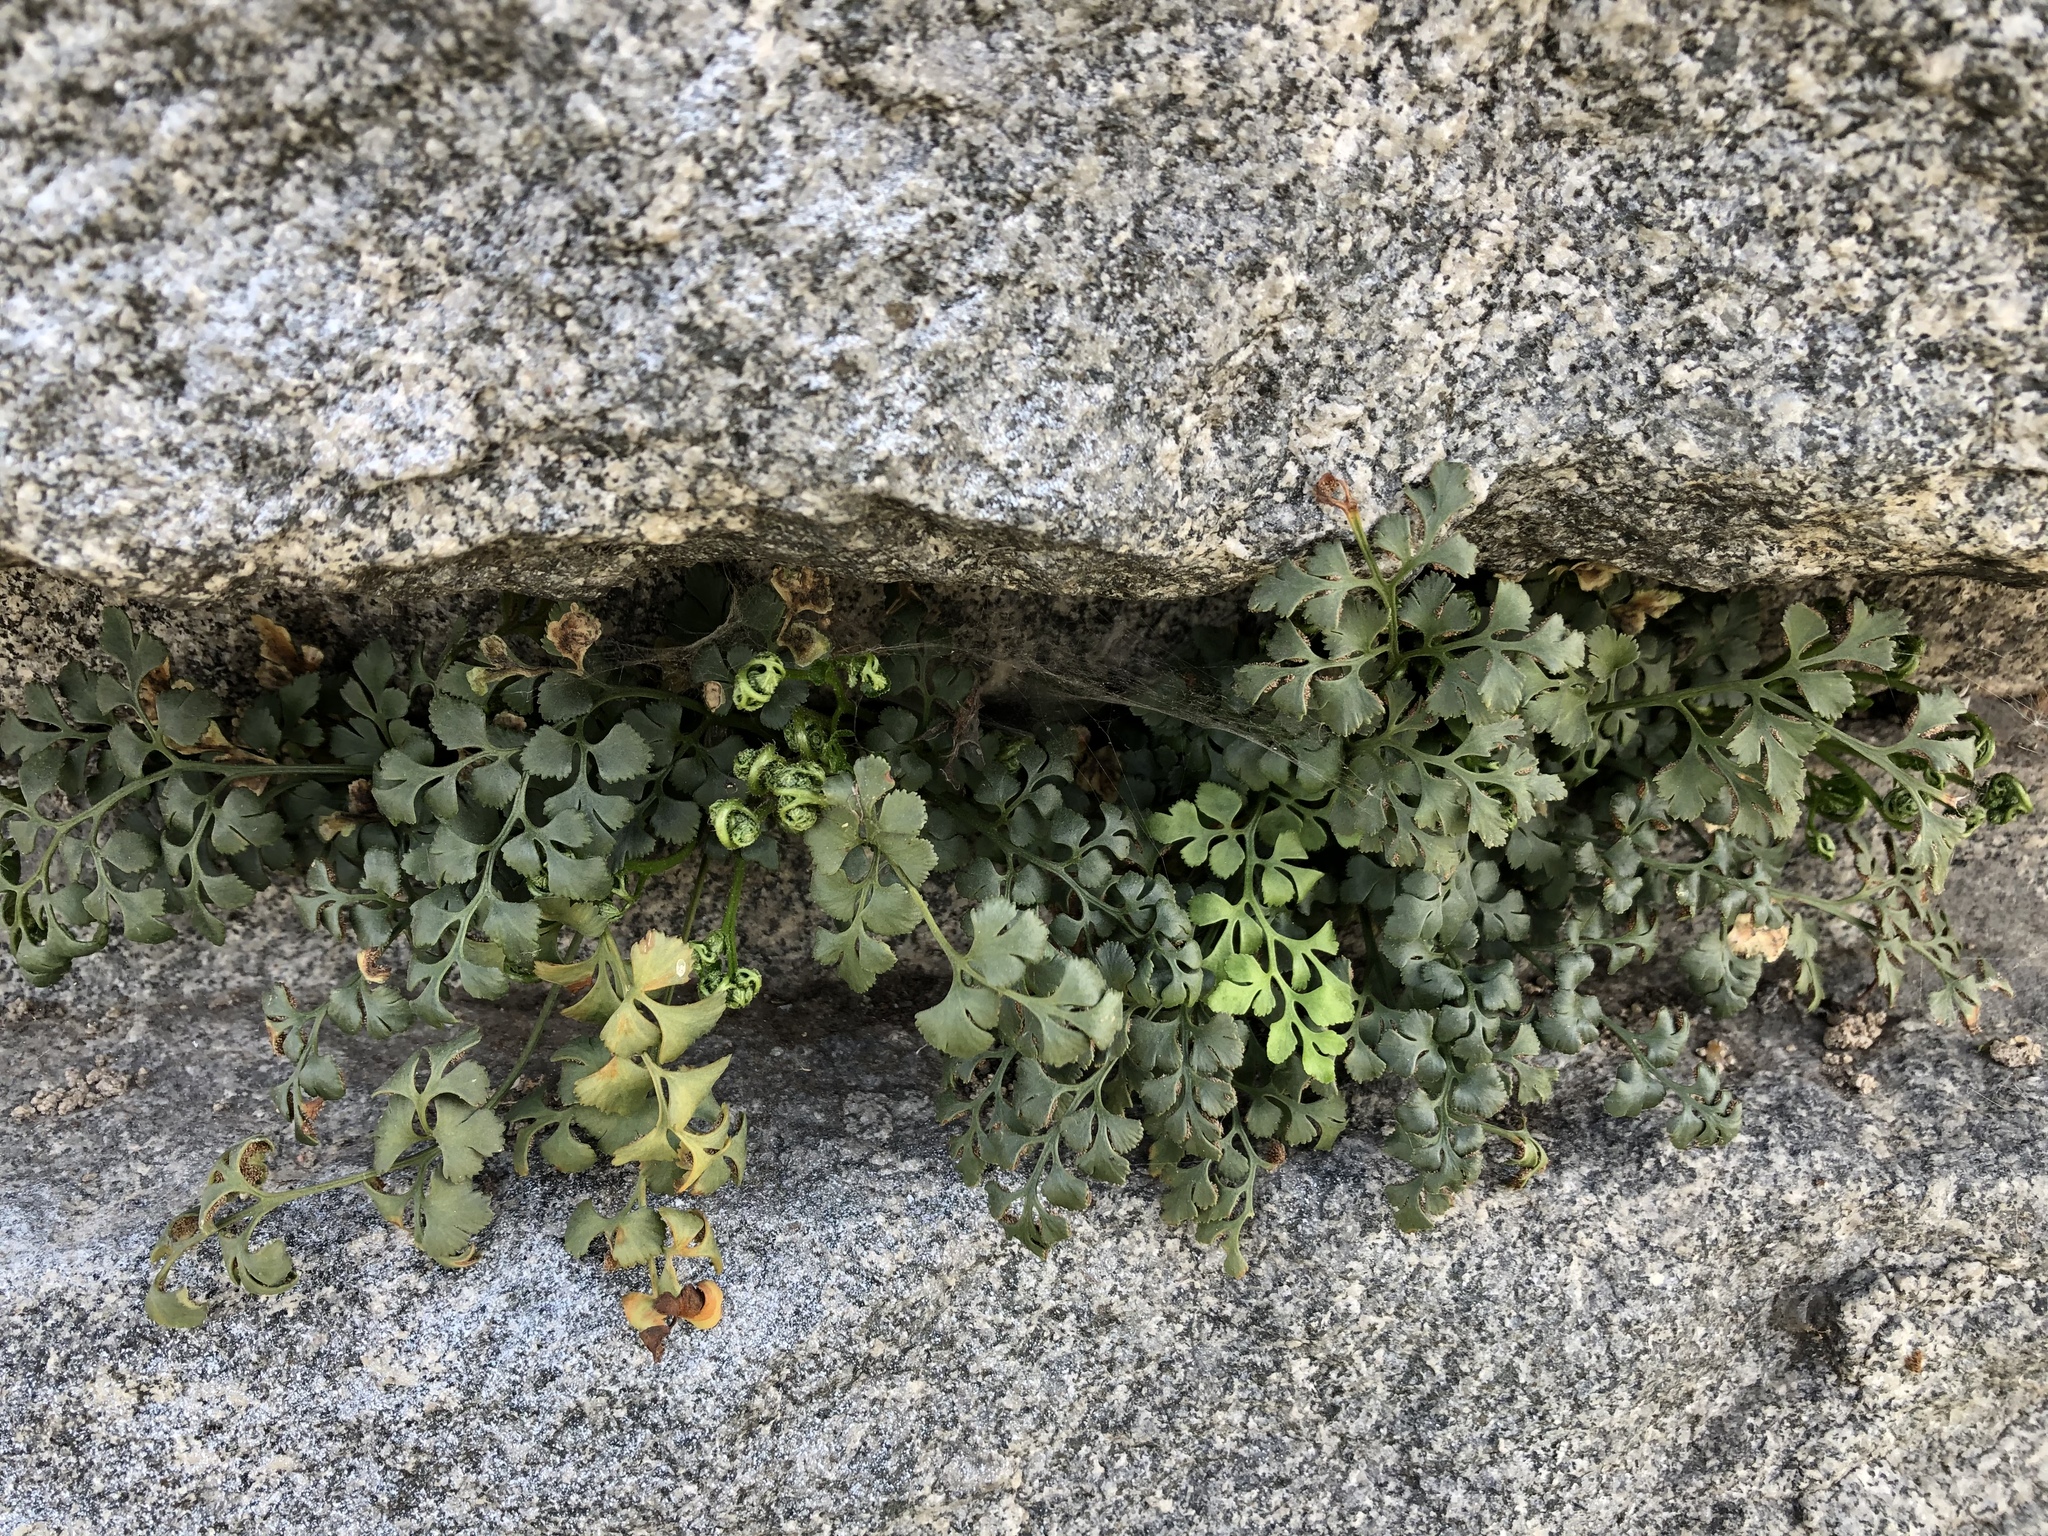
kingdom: Plantae
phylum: Tracheophyta
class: Polypodiopsida
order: Polypodiales
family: Aspleniaceae
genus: Asplenium
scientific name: Asplenium ruta-muraria
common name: Wall-rue
